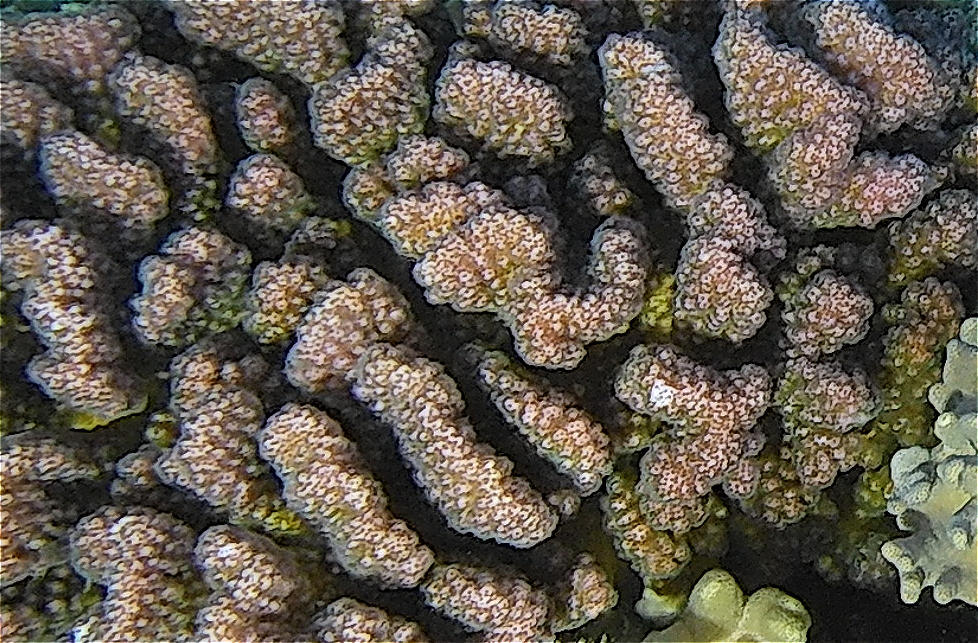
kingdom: Animalia
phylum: Cnidaria
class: Anthozoa
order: Scleractinia
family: Pocilloporidae
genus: Pocillopora
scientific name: Pocillopora verrucosa
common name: Cauliflower coral
